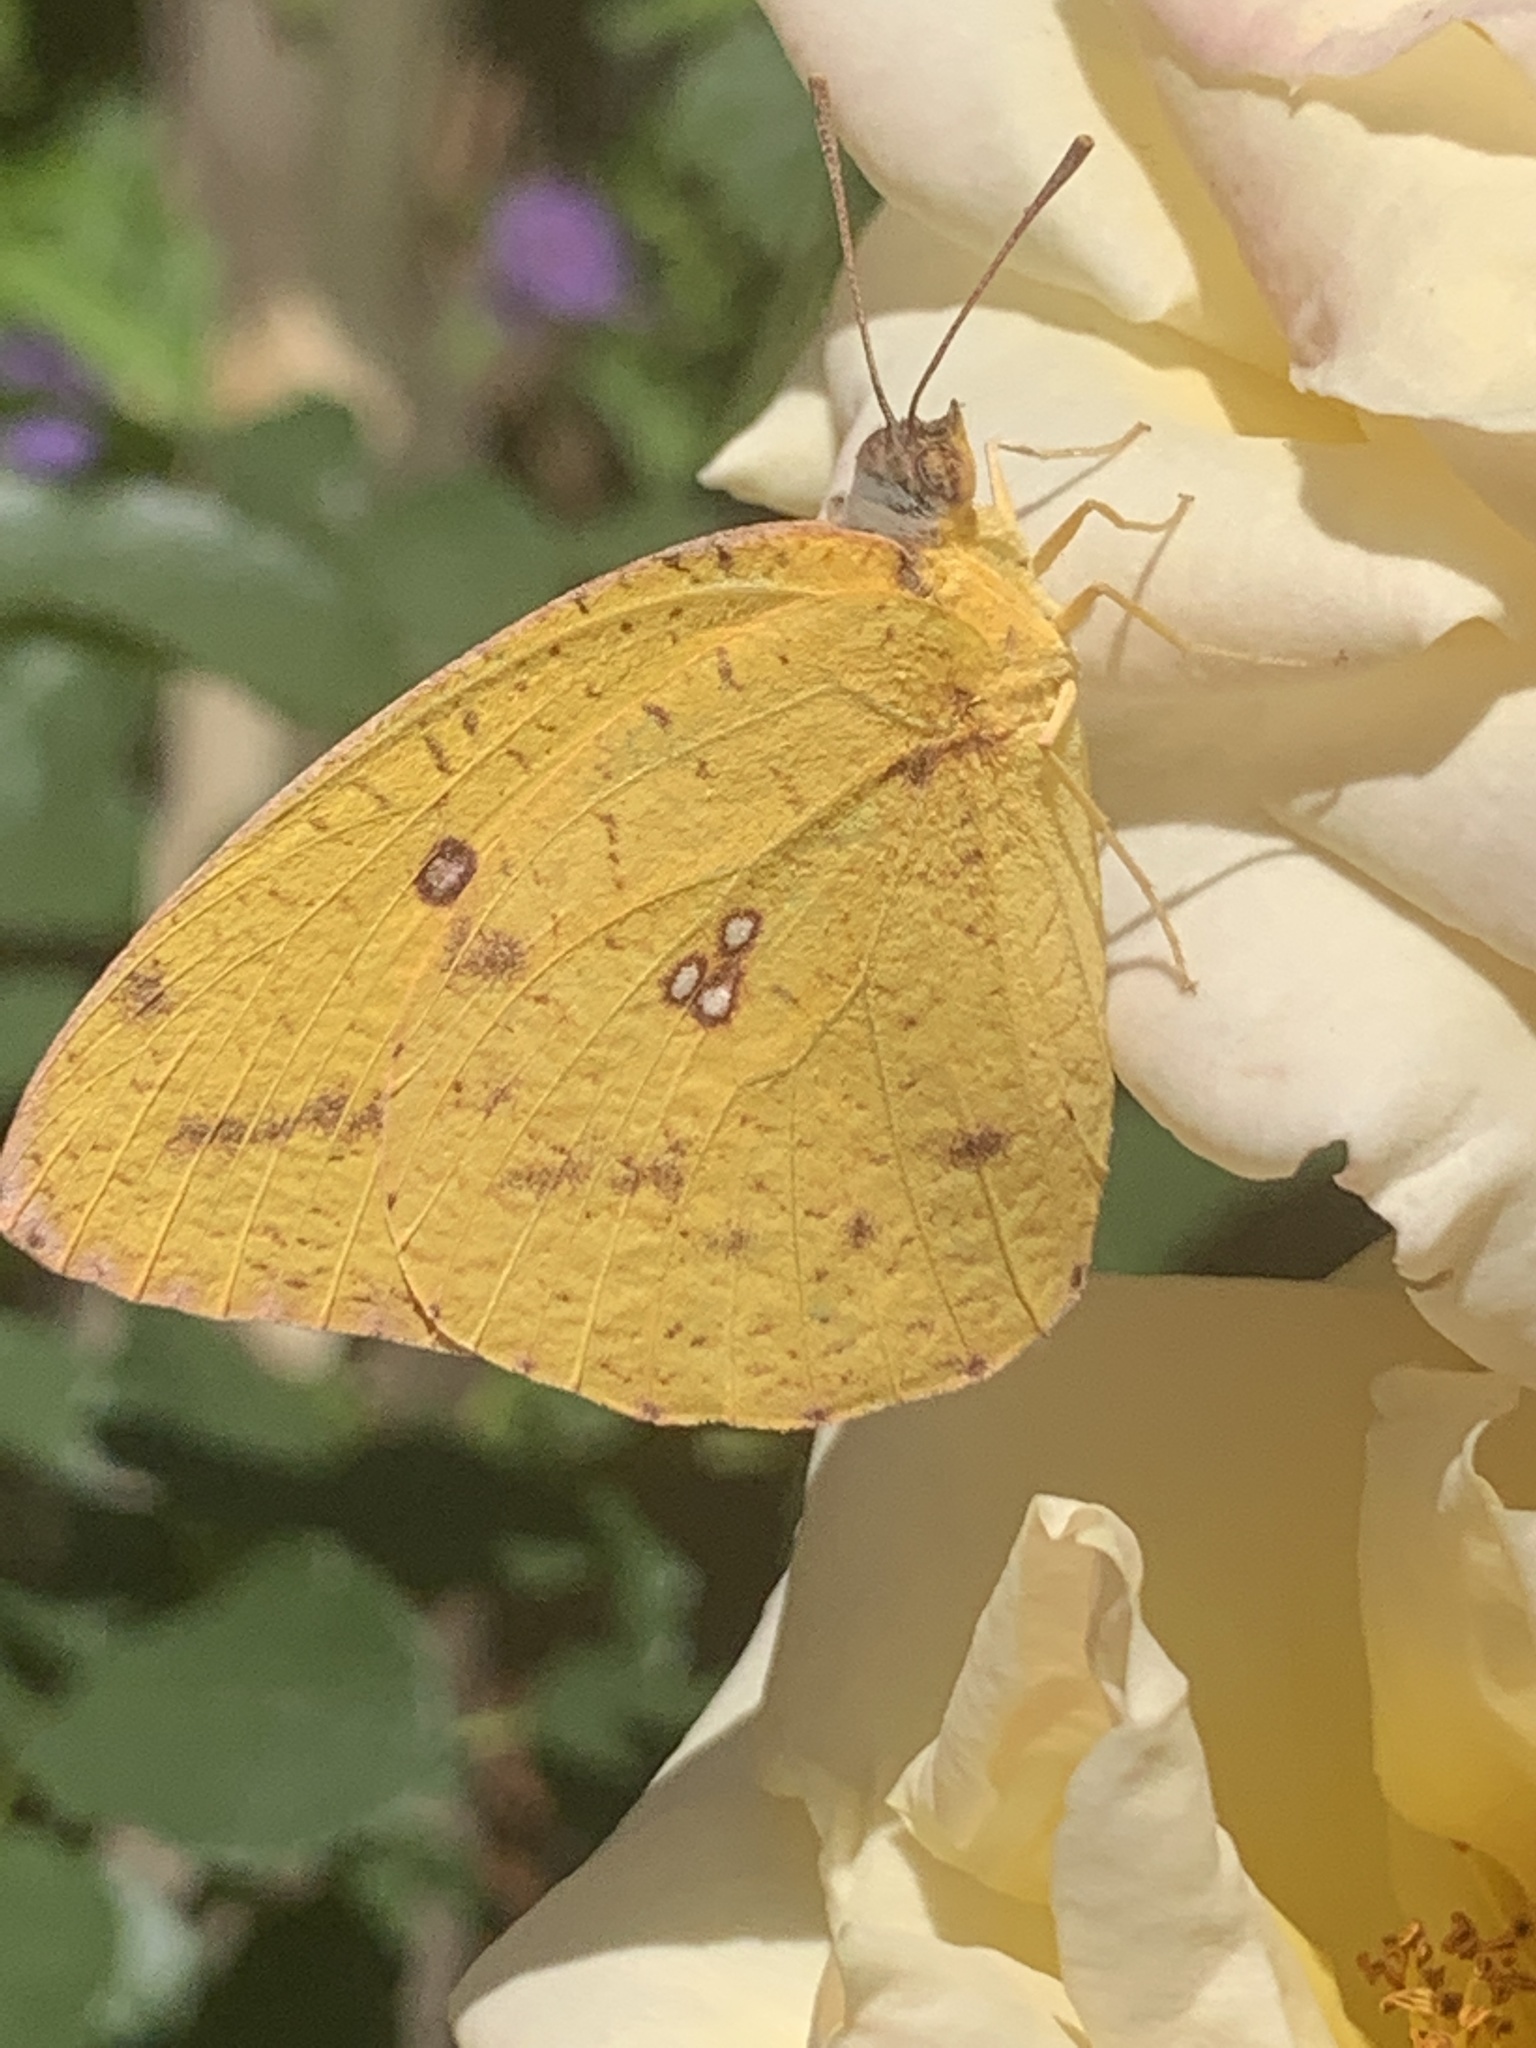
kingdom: Animalia
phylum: Arthropoda
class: Insecta
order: Lepidoptera
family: Pieridae
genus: Catopsilia
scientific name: Catopsilia florella
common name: African migrant
